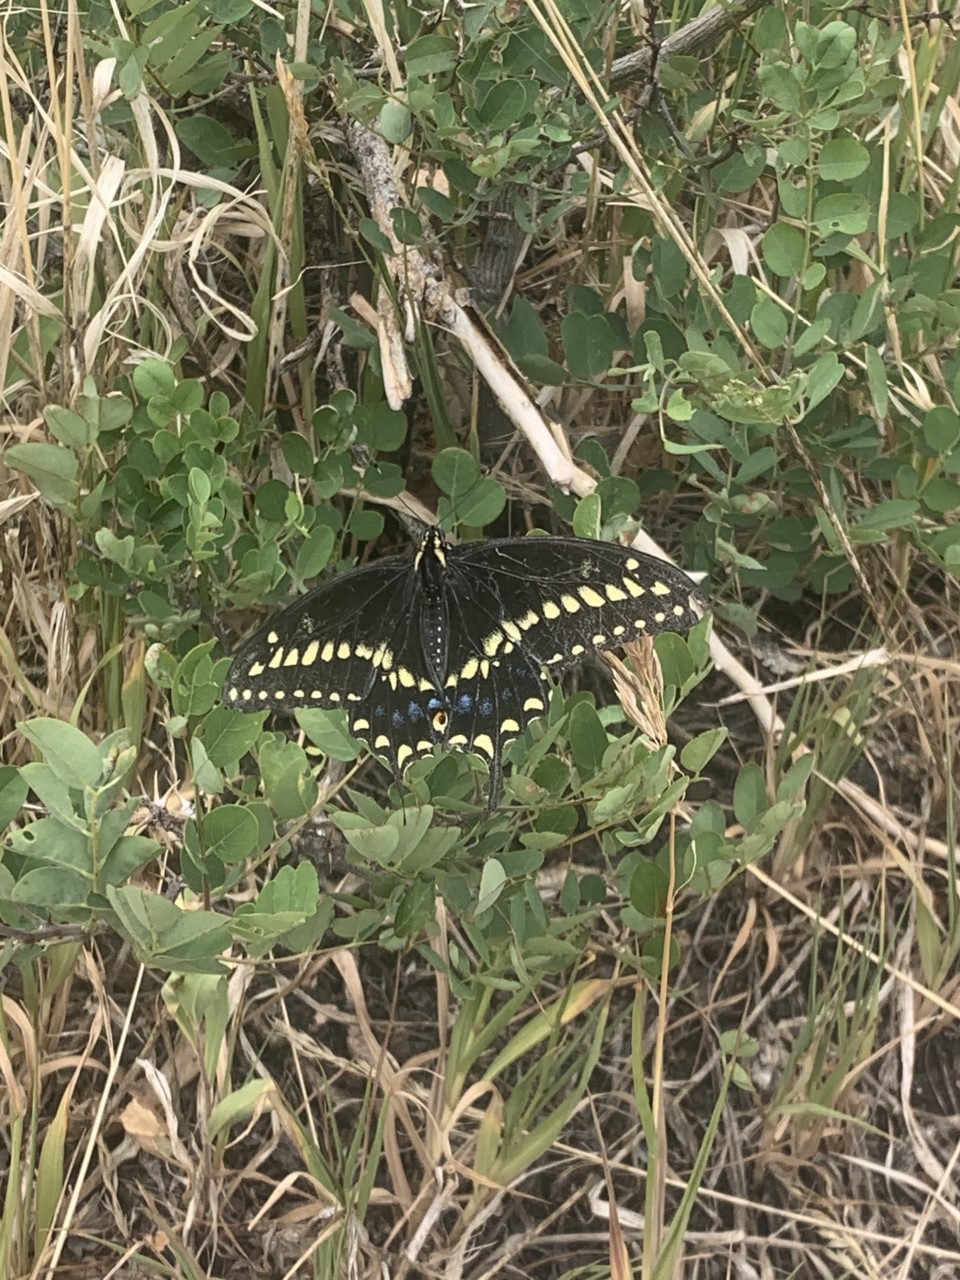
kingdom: Animalia
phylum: Arthropoda
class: Insecta
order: Lepidoptera
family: Papilionidae
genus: Papilio
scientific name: Papilio
